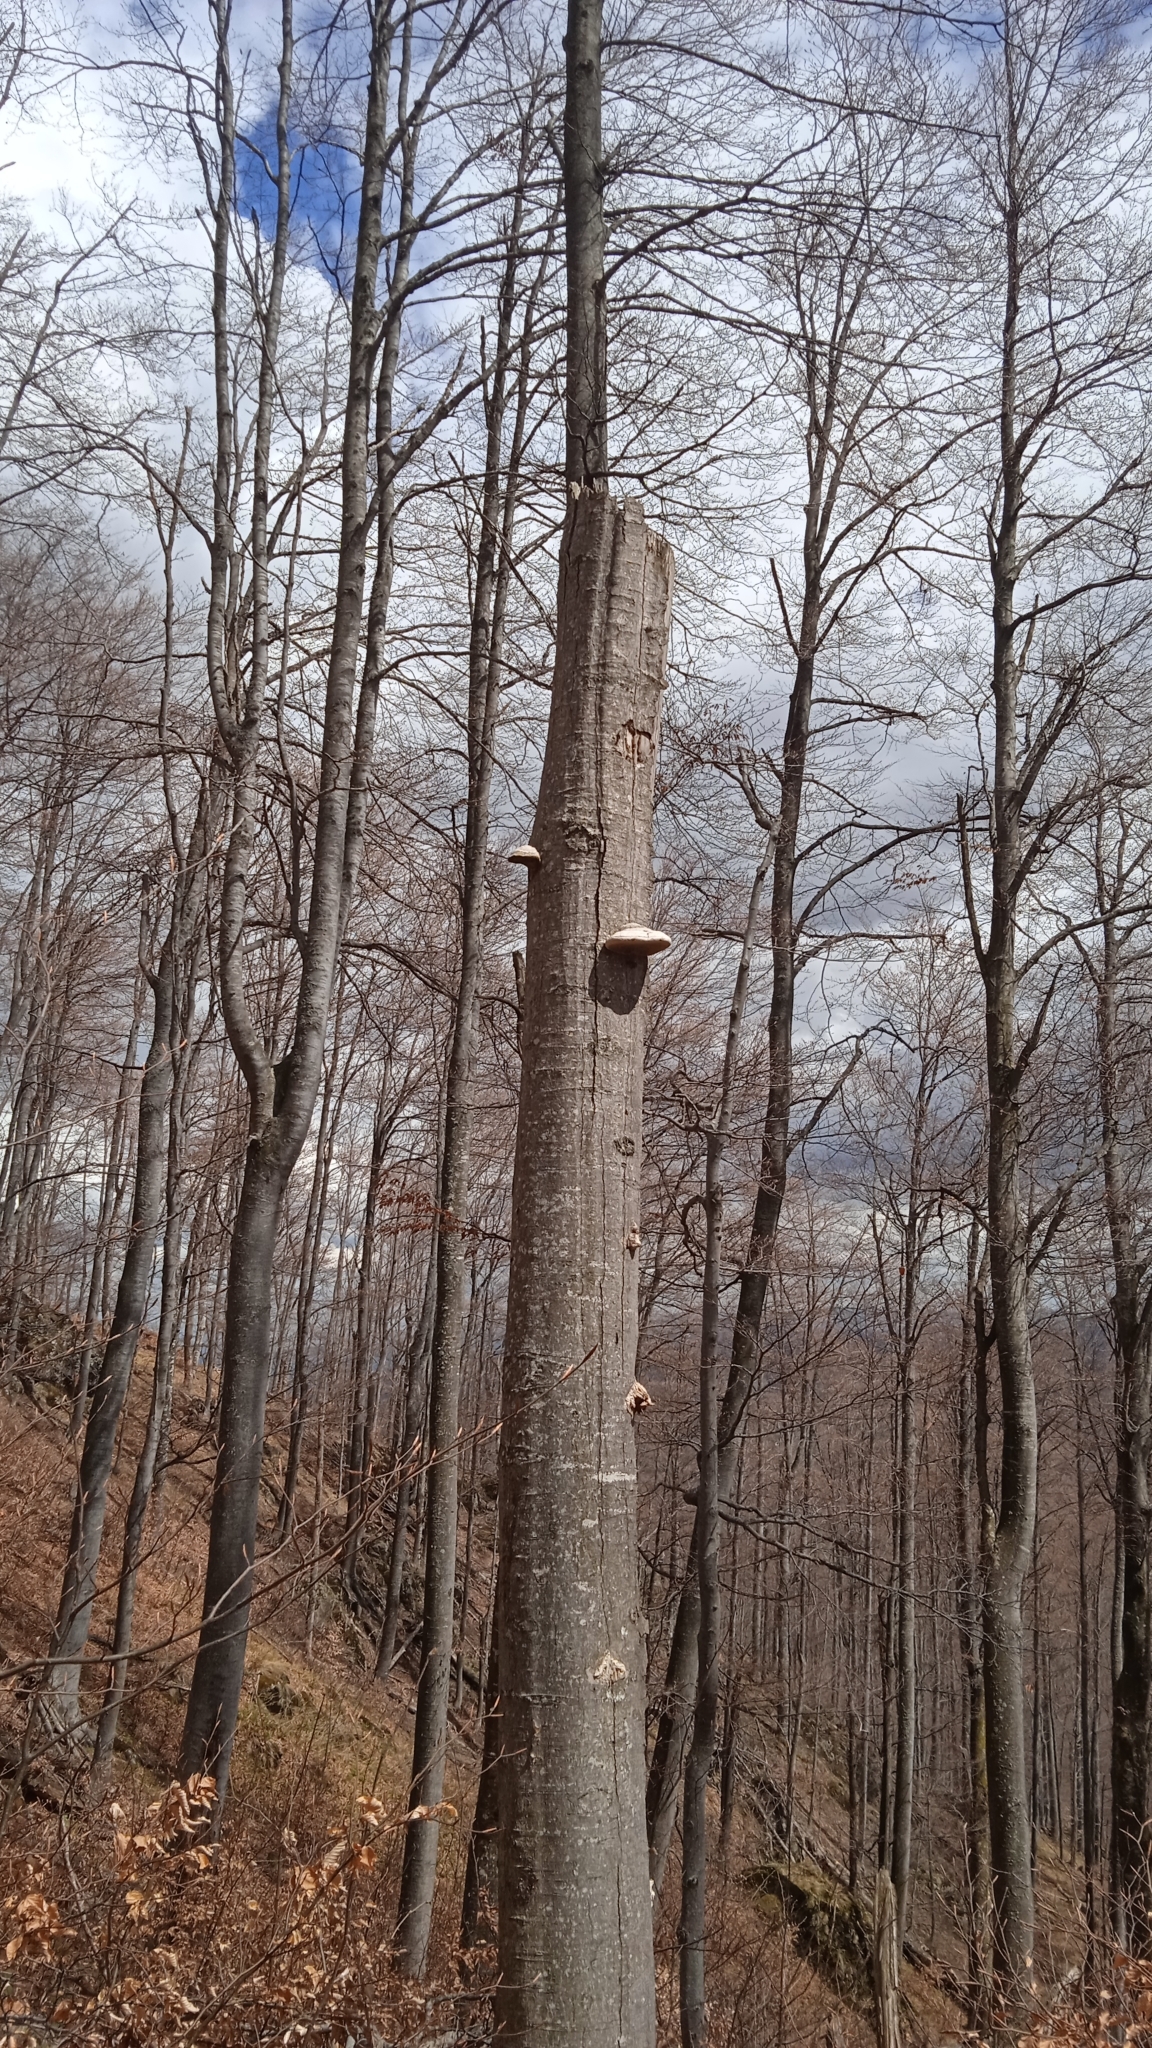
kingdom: Fungi
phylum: Basidiomycota
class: Agaricomycetes
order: Polyporales
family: Polyporaceae
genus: Fomes
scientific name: Fomes fomentarius
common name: Hoof fungus
